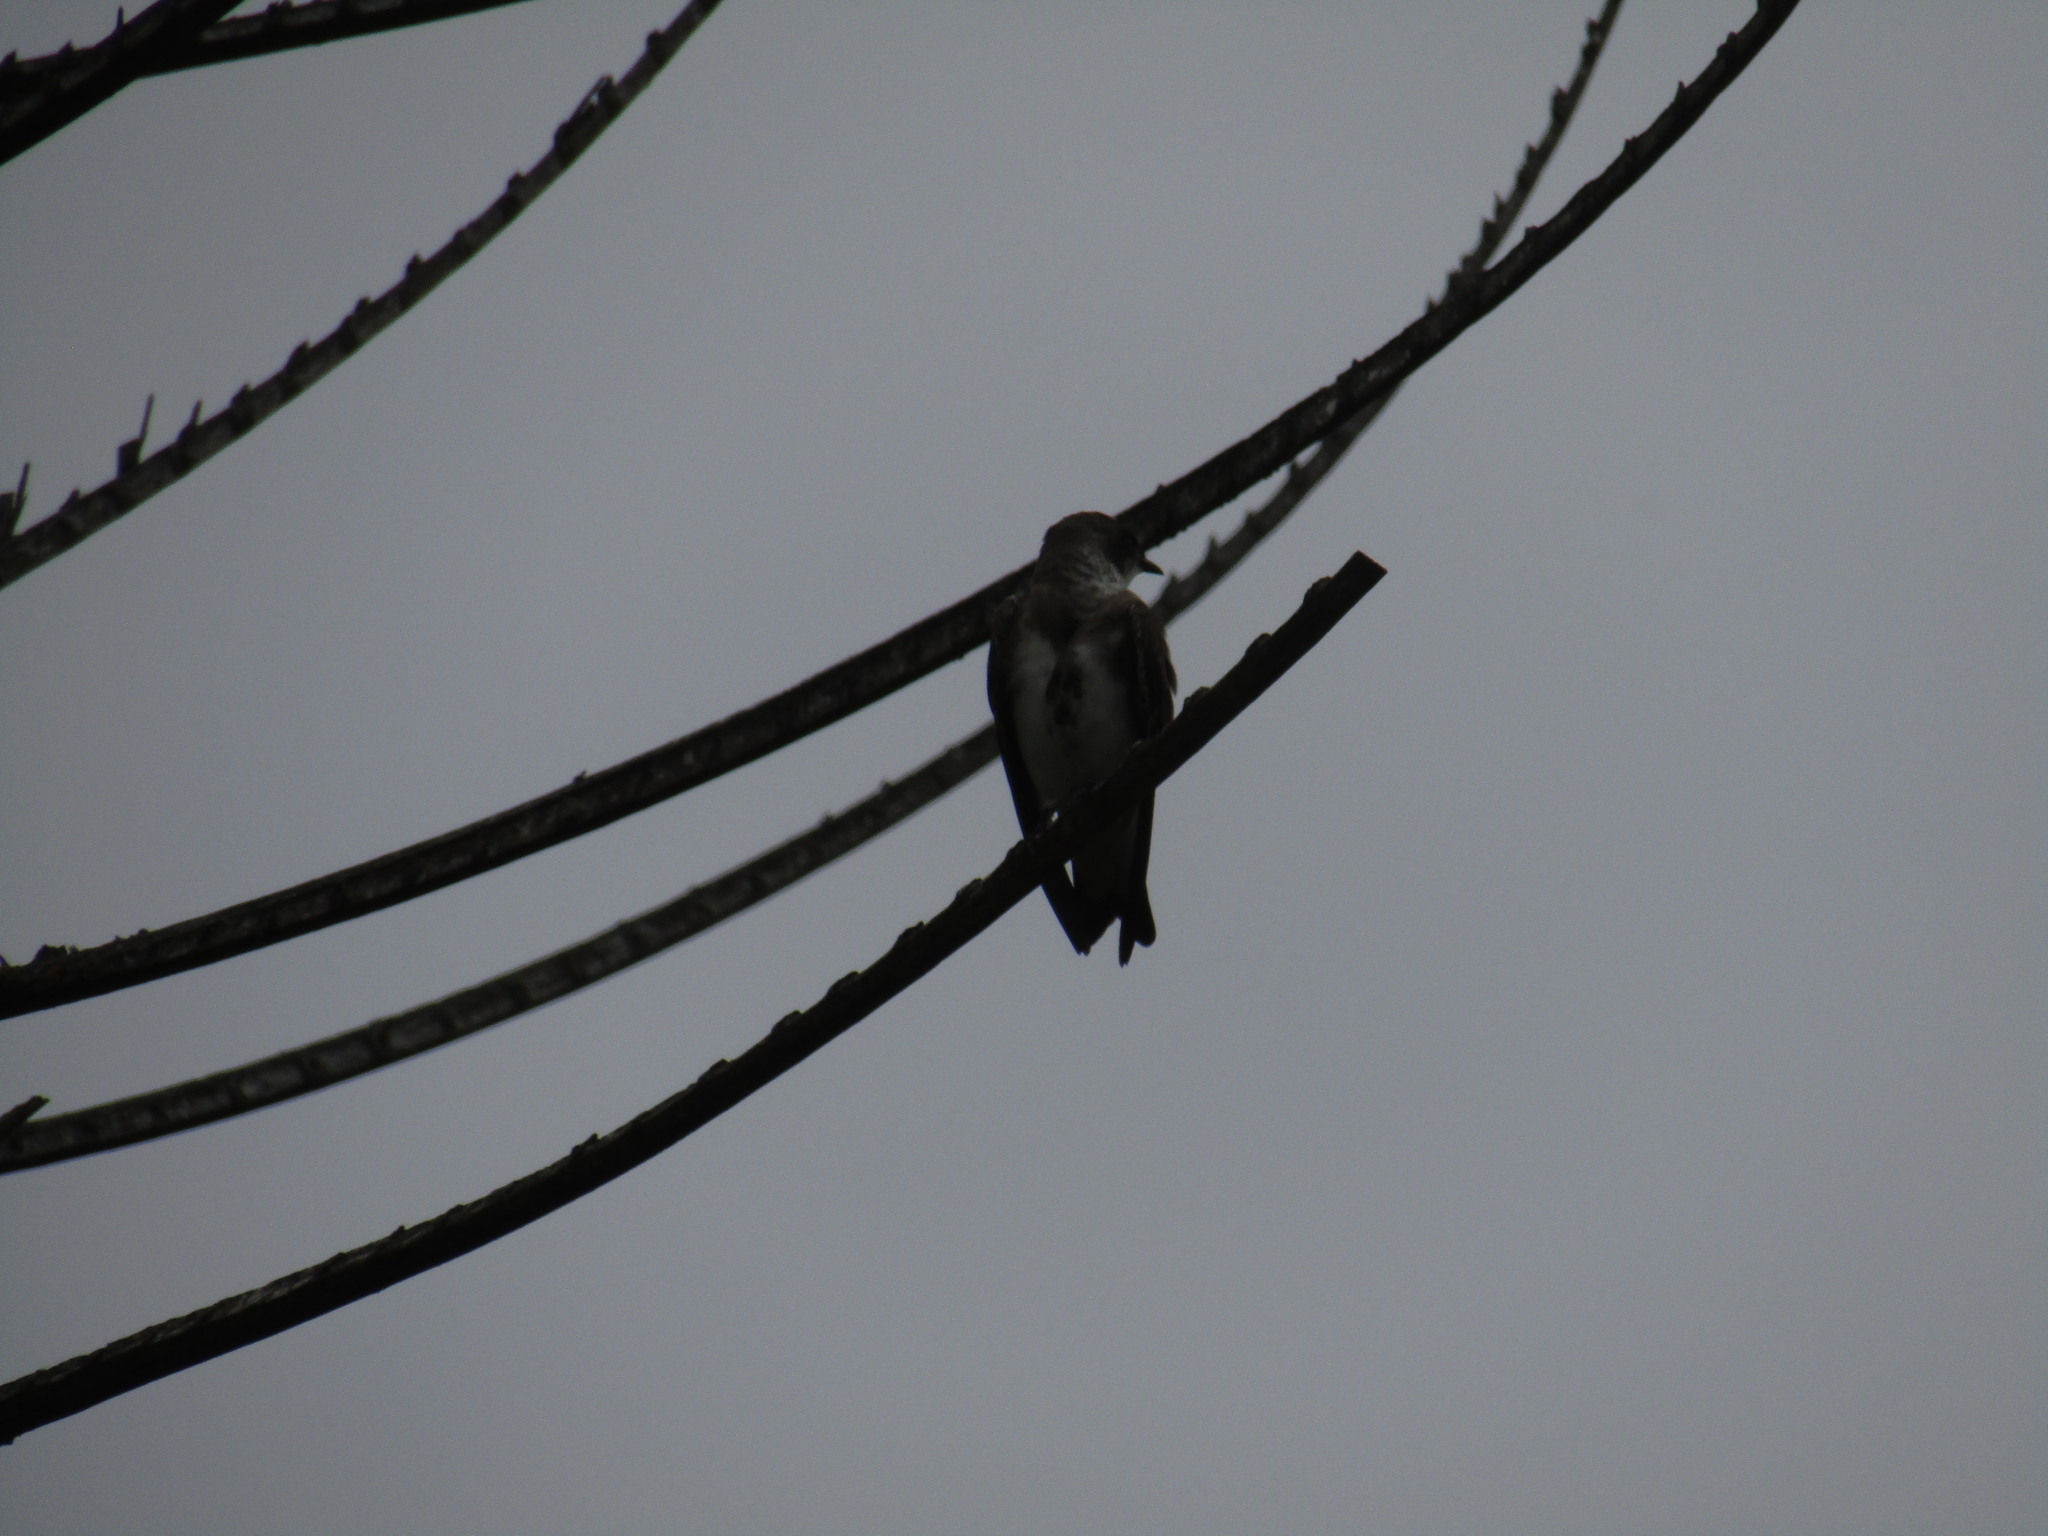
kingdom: Animalia
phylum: Chordata
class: Aves
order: Passeriformes
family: Hirundinidae
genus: Progne
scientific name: Progne tapera
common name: Brown-chested martin
